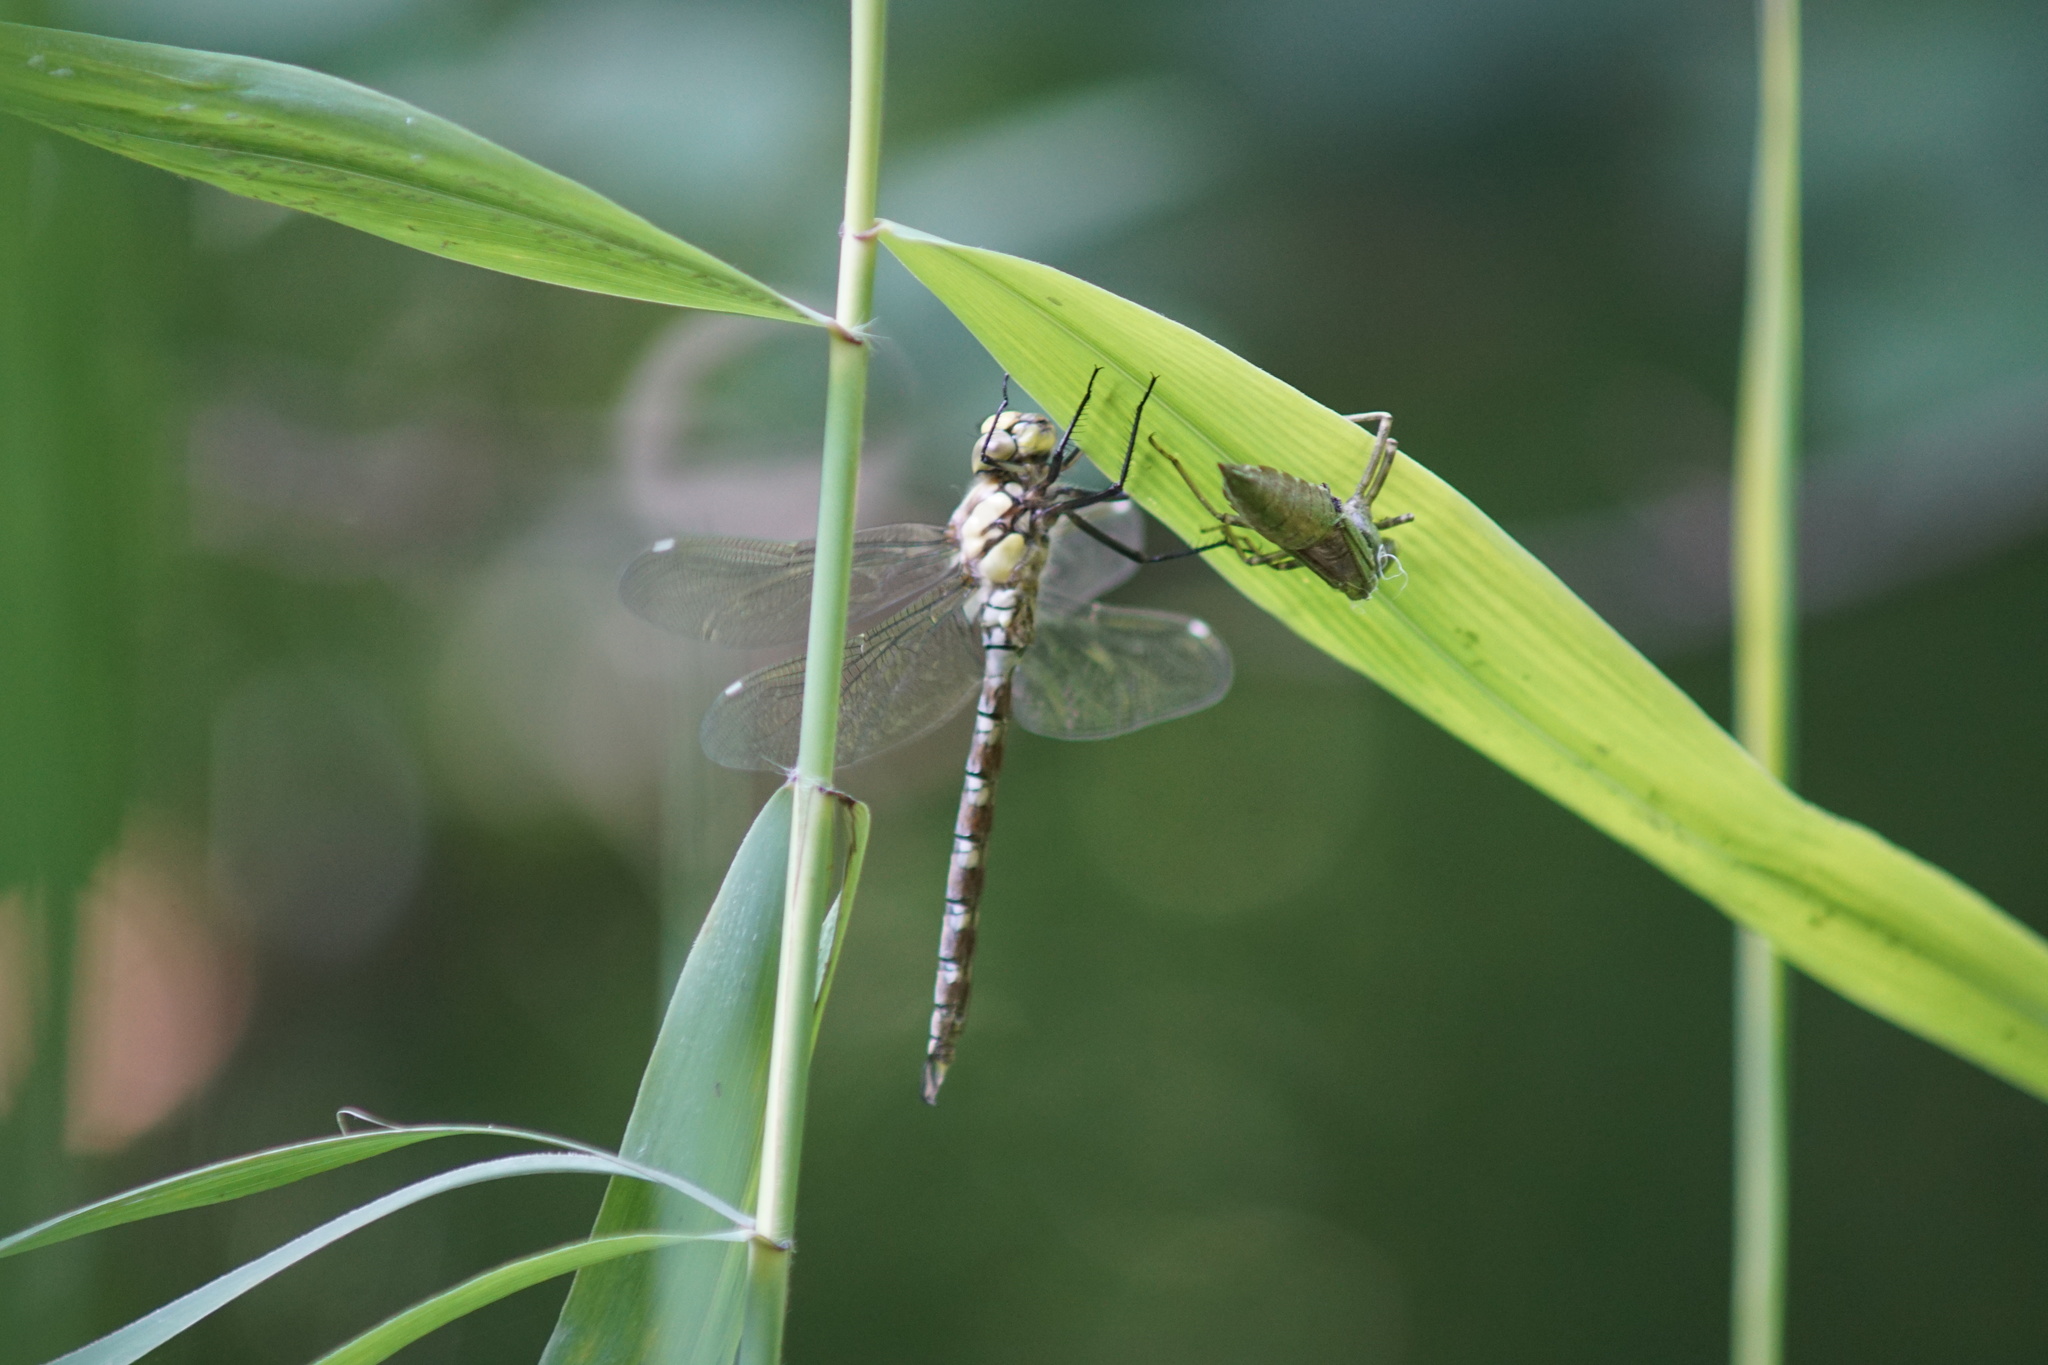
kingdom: Animalia
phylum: Arthropoda
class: Insecta
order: Odonata
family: Aeshnidae
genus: Aeshna
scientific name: Aeshna cyanea
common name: Southern hawker
